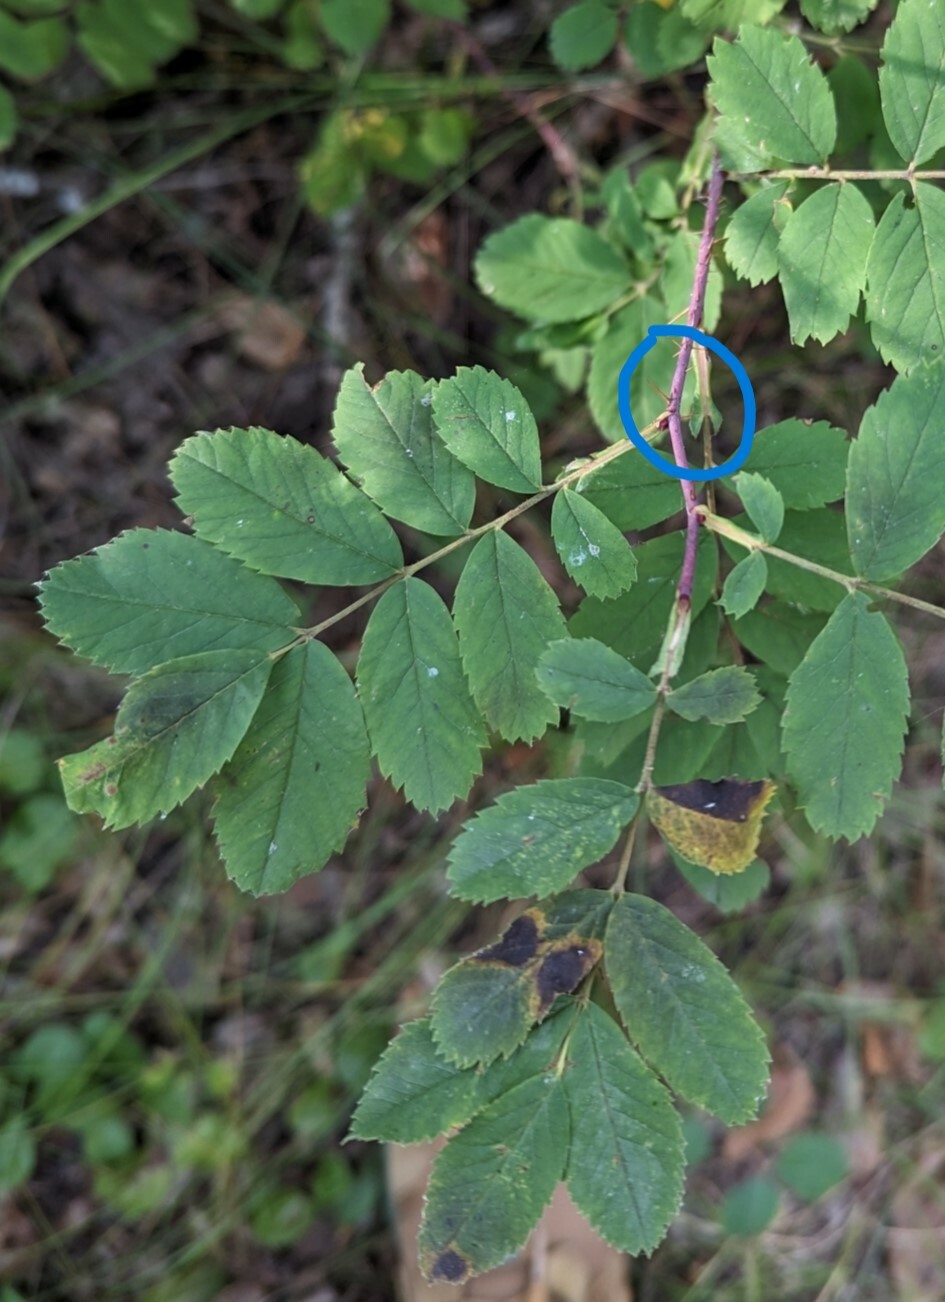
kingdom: Plantae
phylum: Tracheophyta
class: Magnoliopsida
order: Rosales
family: Rosaceae
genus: Rosa
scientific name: Rosa woodsii
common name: Woods's rose
